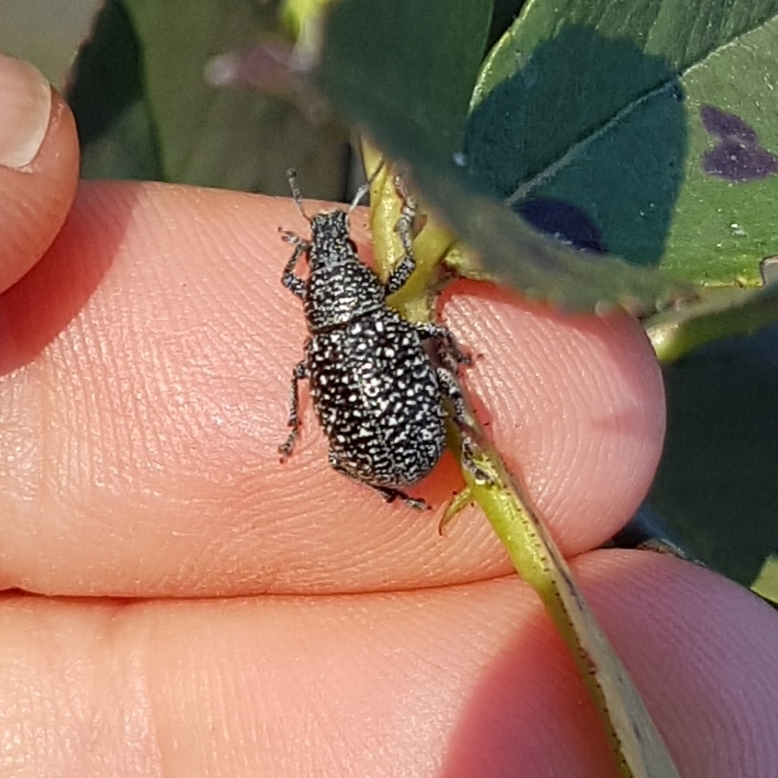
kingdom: Animalia
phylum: Arthropoda
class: Insecta
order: Coleoptera
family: Curculionidae
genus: Polydius
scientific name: Polydius hispanus
